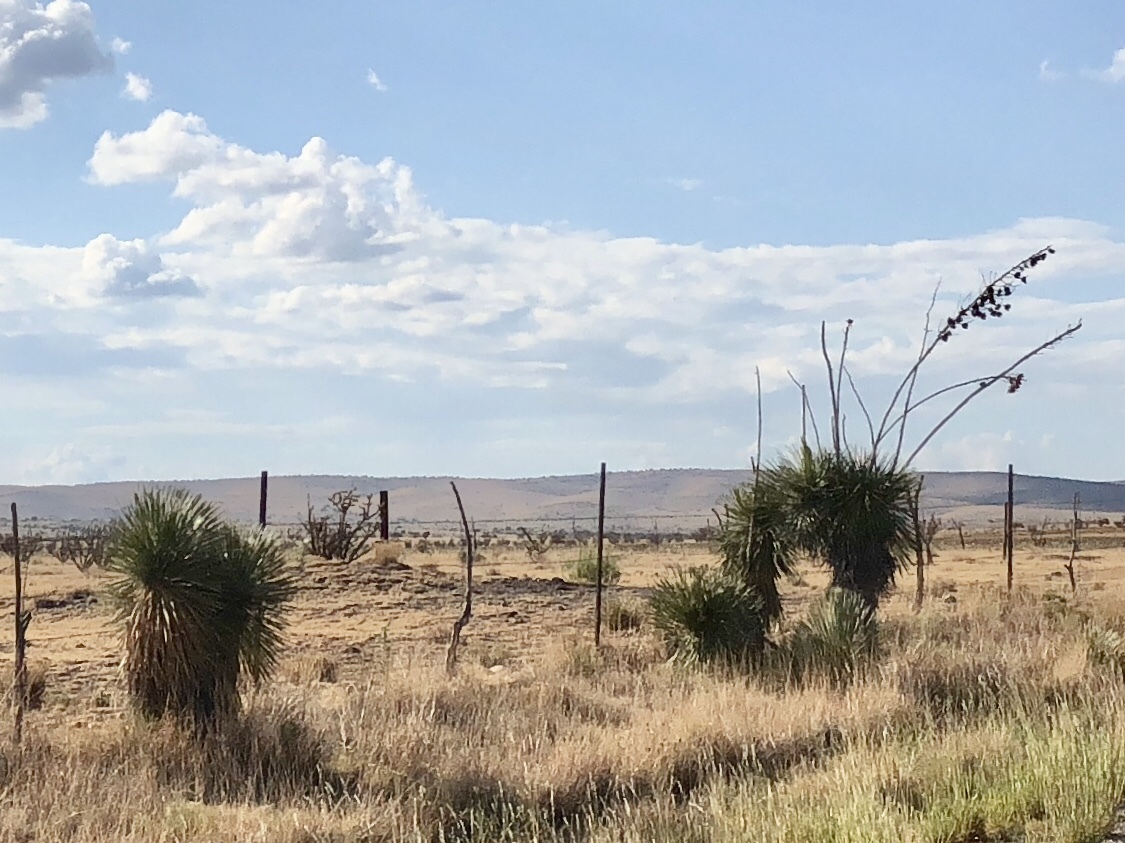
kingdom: Plantae
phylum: Tracheophyta
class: Liliopsida
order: Asparagales
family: Asparagaceae
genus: Yucca
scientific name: Yucca elata
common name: Palmella
